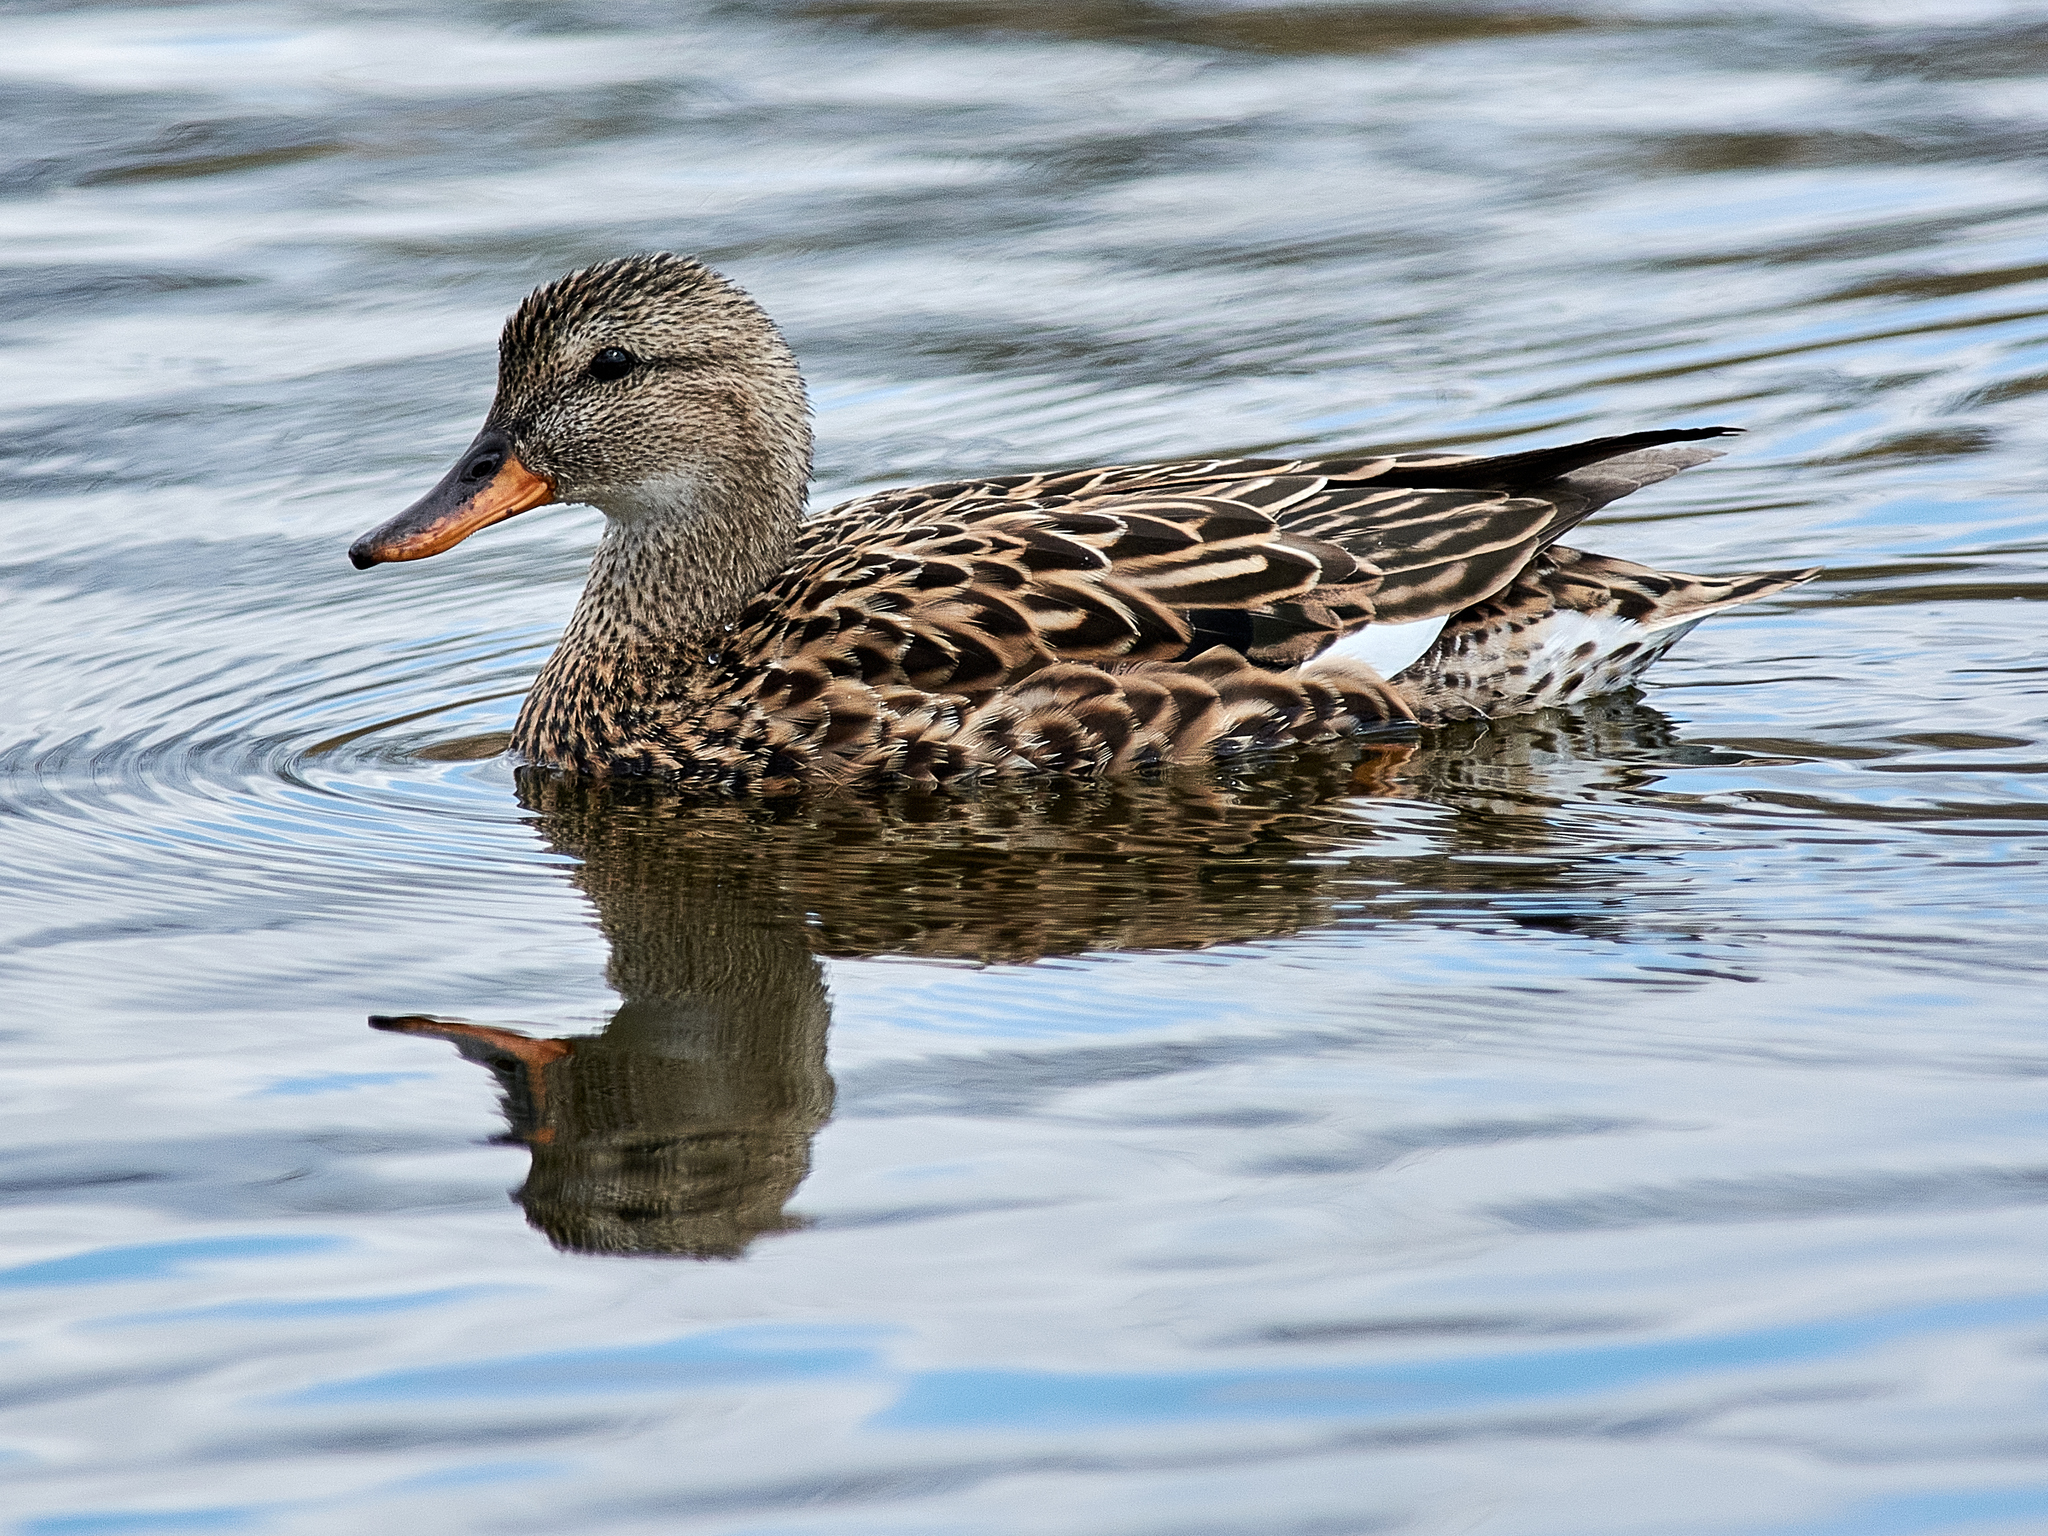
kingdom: Animalia
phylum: Chordata
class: Aves
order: Anseriformes
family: Anatidae
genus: Mareca
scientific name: Mareca strepera
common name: Gadwall
